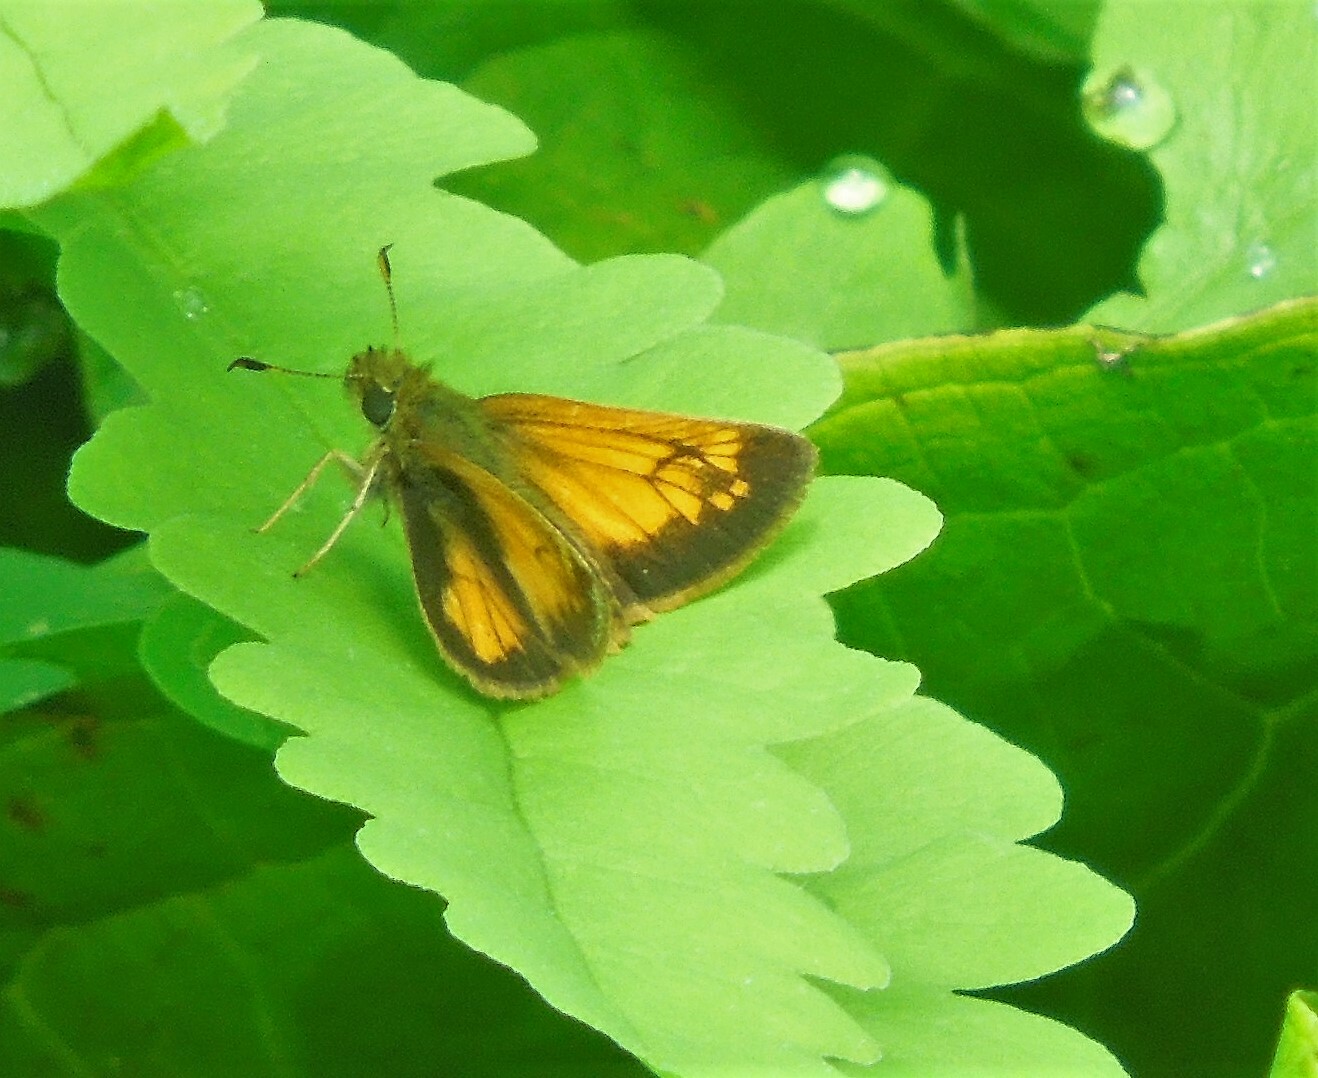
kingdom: Animalia
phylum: Arthropoda
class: Insecta
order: Lepidoptera
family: Hesperiidae
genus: Lon
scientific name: Lon hobomok
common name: Hobomok skipper
